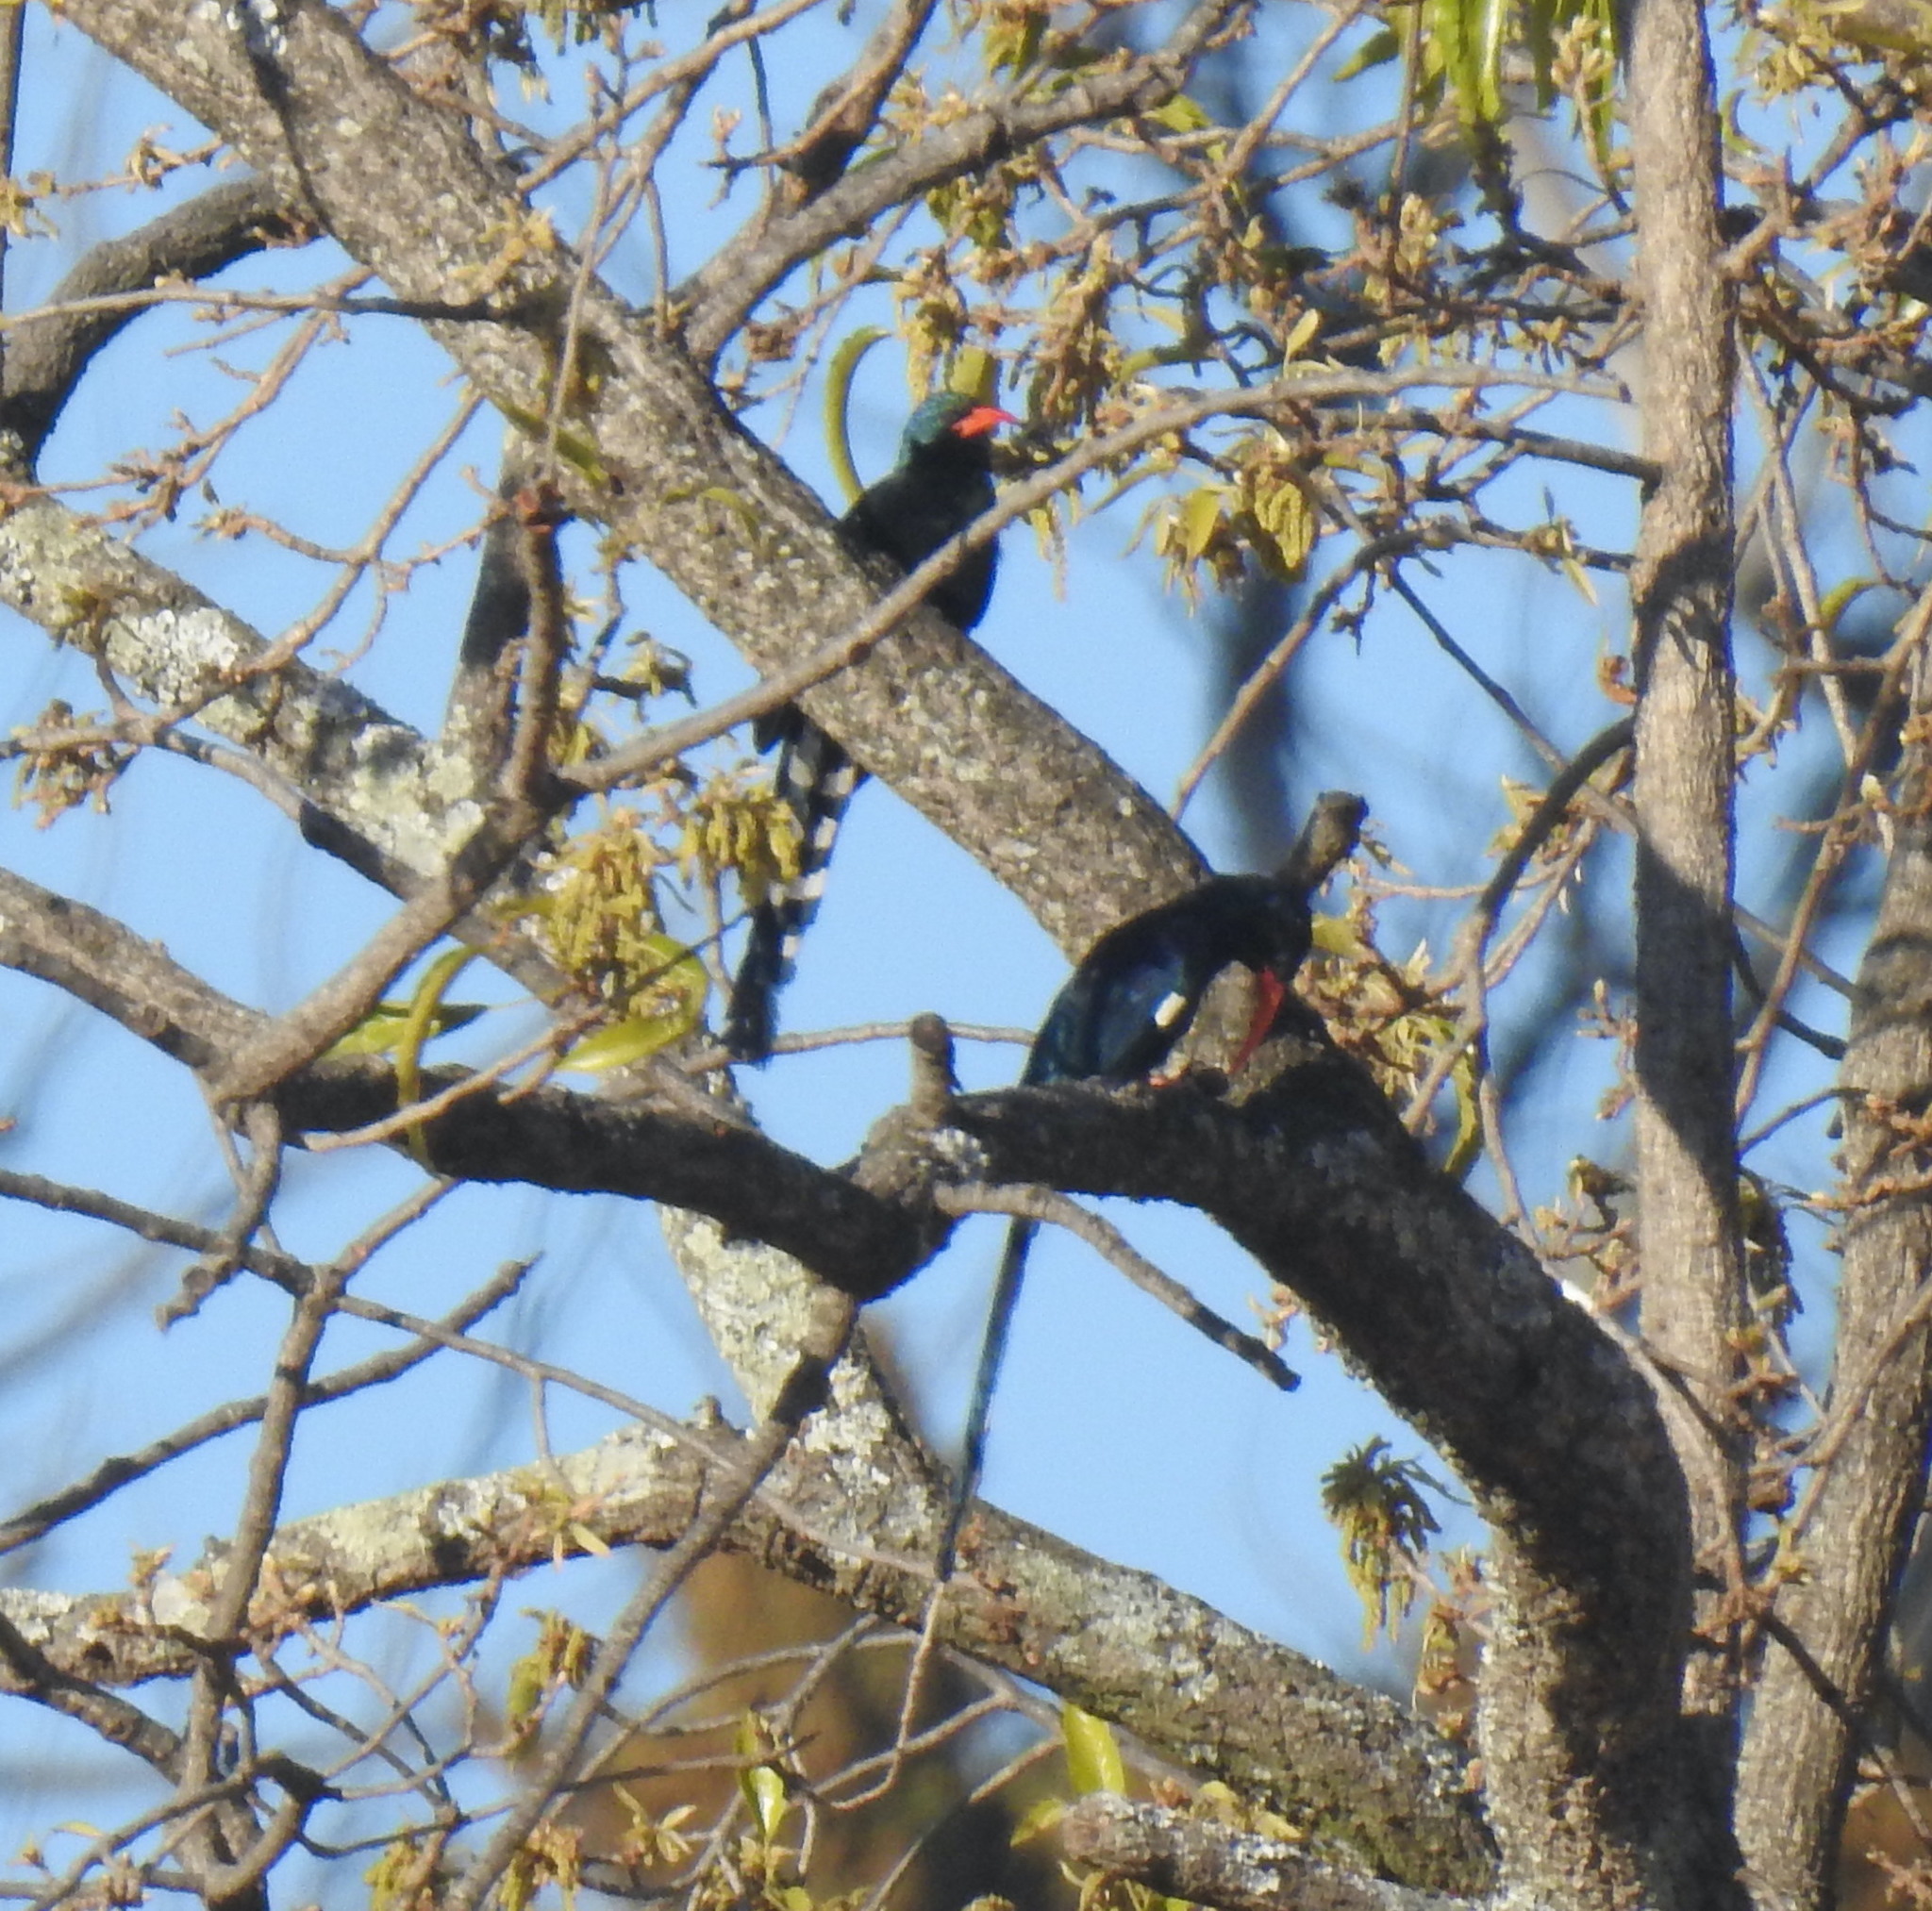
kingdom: Animalia
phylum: Chordata
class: Aves
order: Bucerotiformes
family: Phoeniculidae
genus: Phoeniculus
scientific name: Phoeniculus purpureus
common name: Green woodhoopoe
